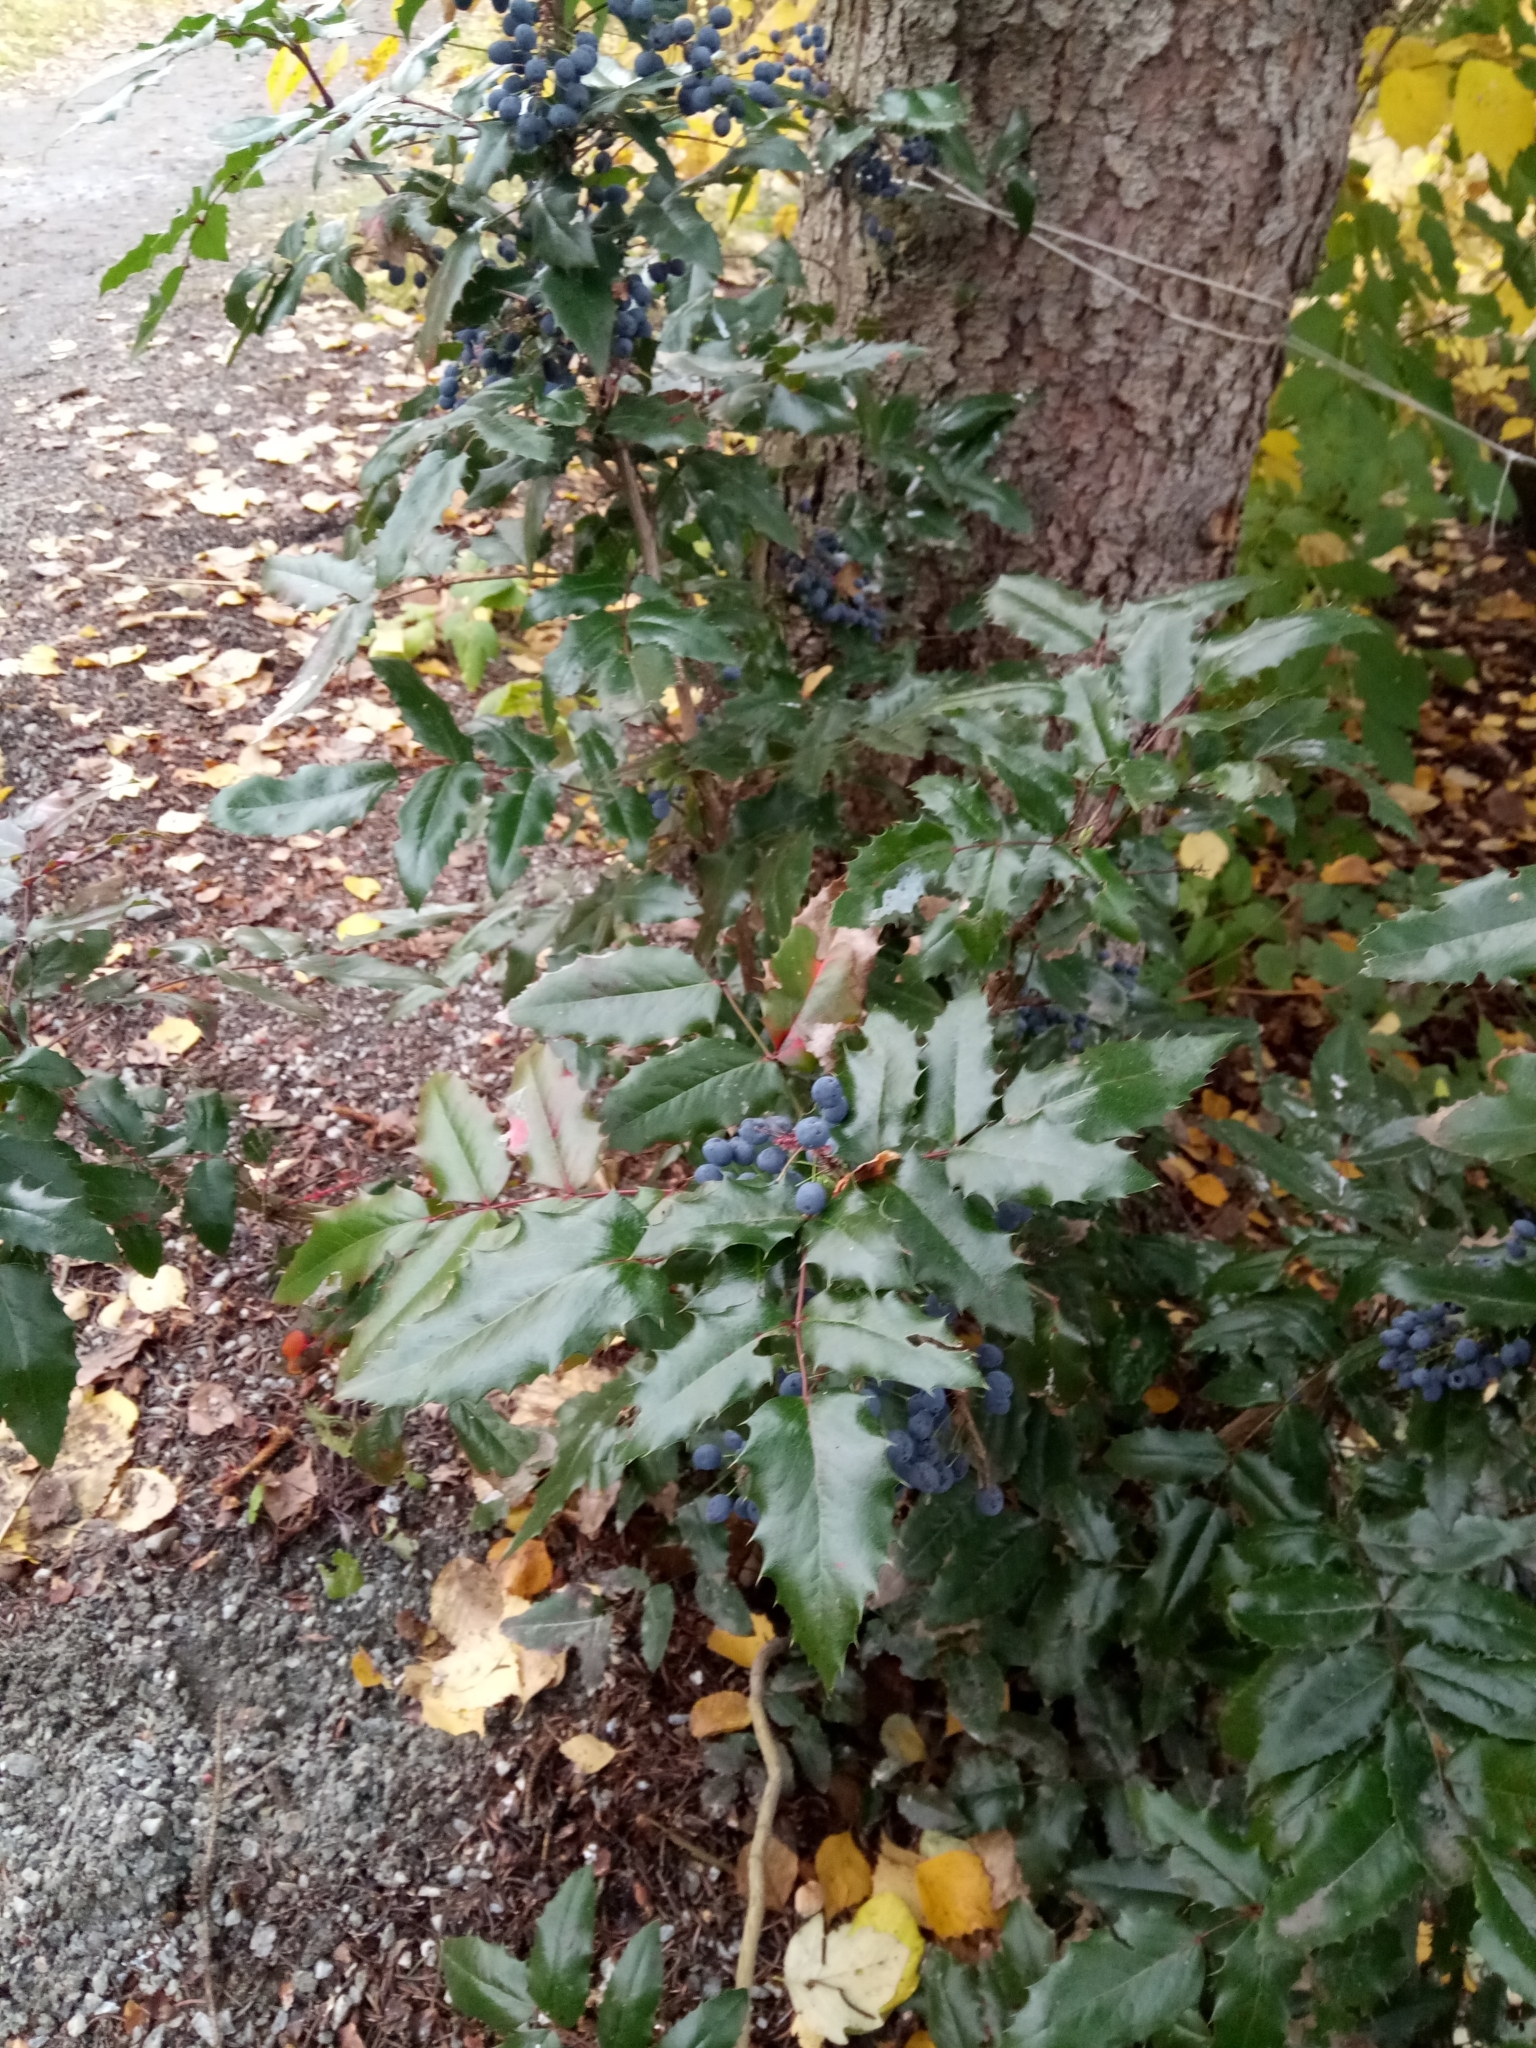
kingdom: Plantae
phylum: Tracheophyta
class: Magnoliopsida
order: Ranunculales
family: Berberidaceae
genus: Mahonia
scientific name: Mahonia aquifolium
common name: Oregon-grape
